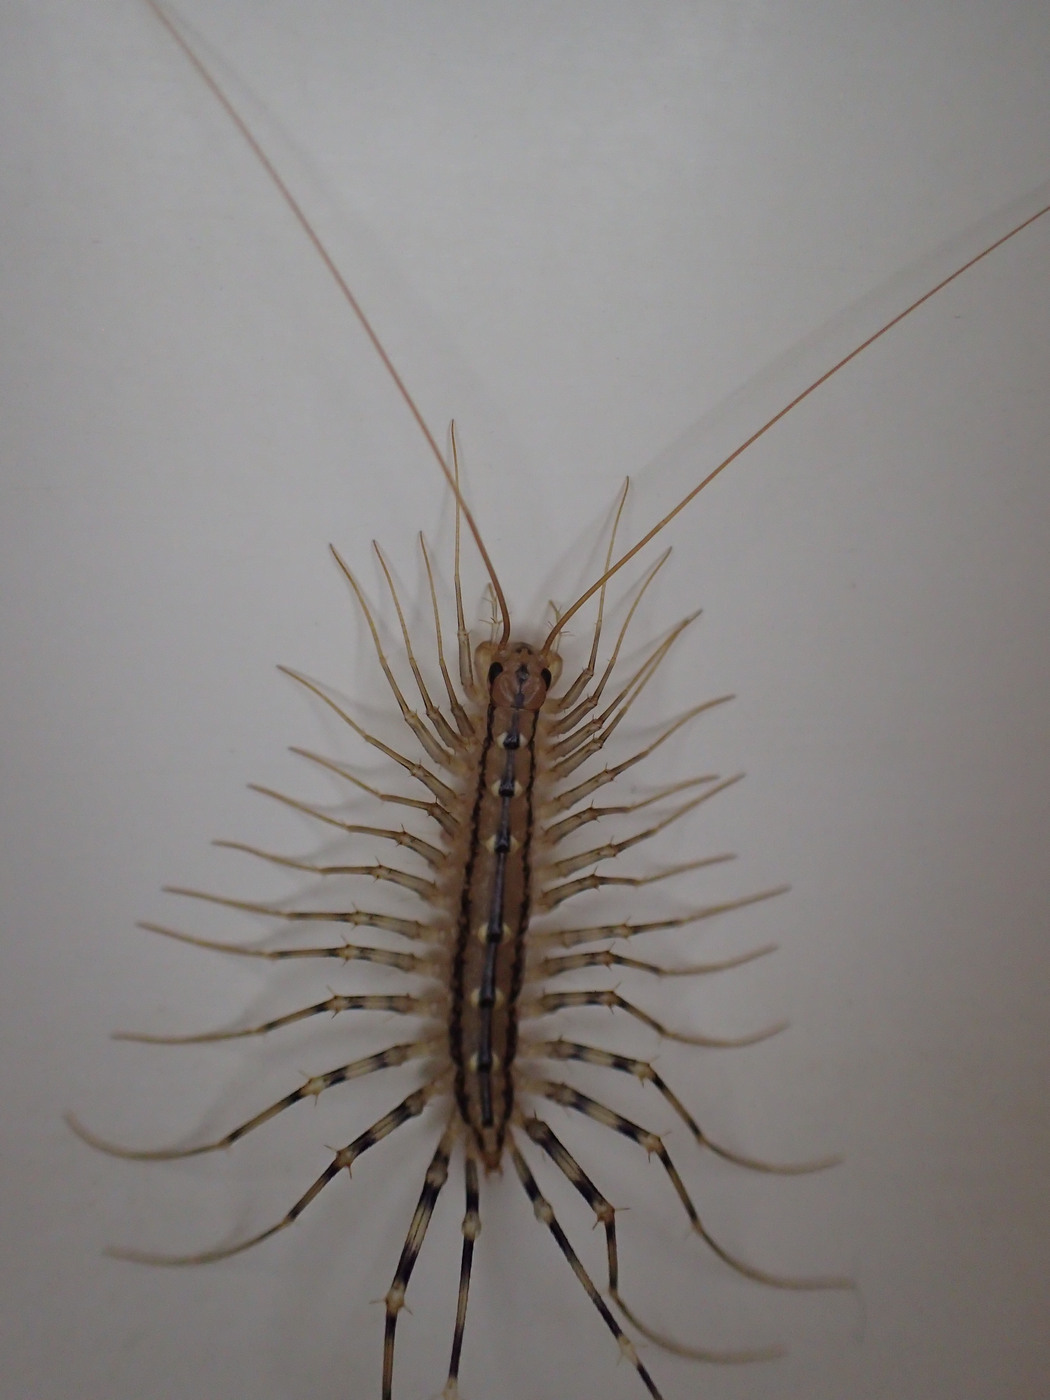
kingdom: Animalia
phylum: Arthropoda
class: Chilopoda
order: Scutigeromorpha
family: Scutigeridae
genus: Scutigera
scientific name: Scutigera coleoptrata
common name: House centipede
